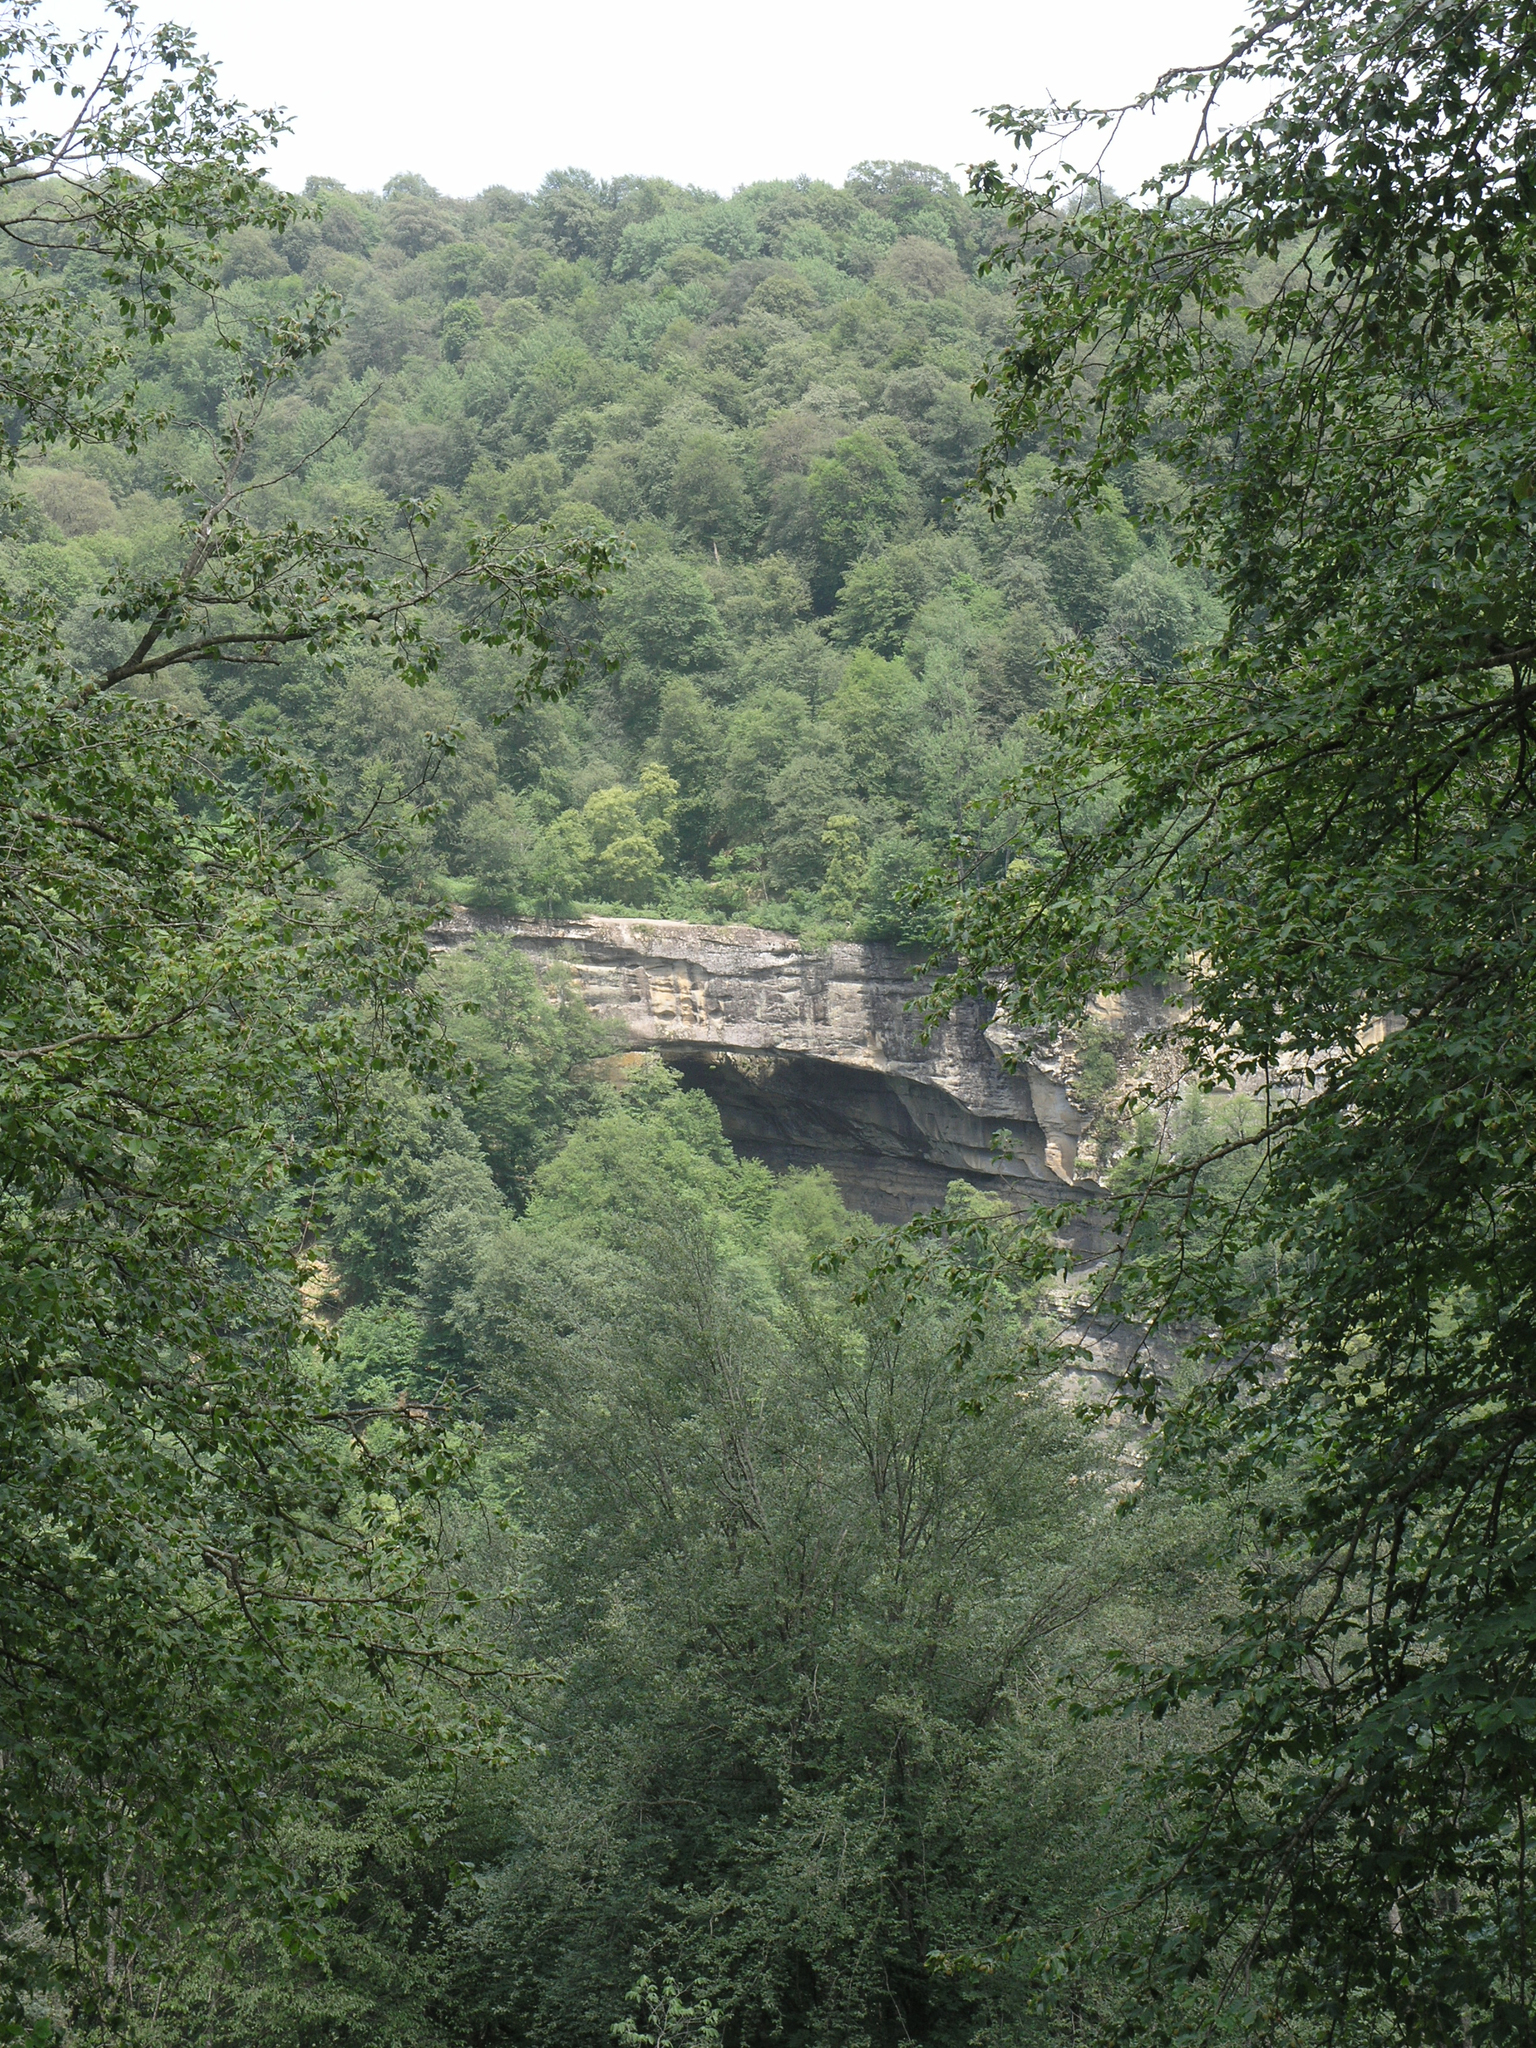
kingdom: Plantae
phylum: Tracheophyta
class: Magnoliopsida
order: Fagales
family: Fagaceae
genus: Fagus
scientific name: Fagus orientalis
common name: Oriental beech
